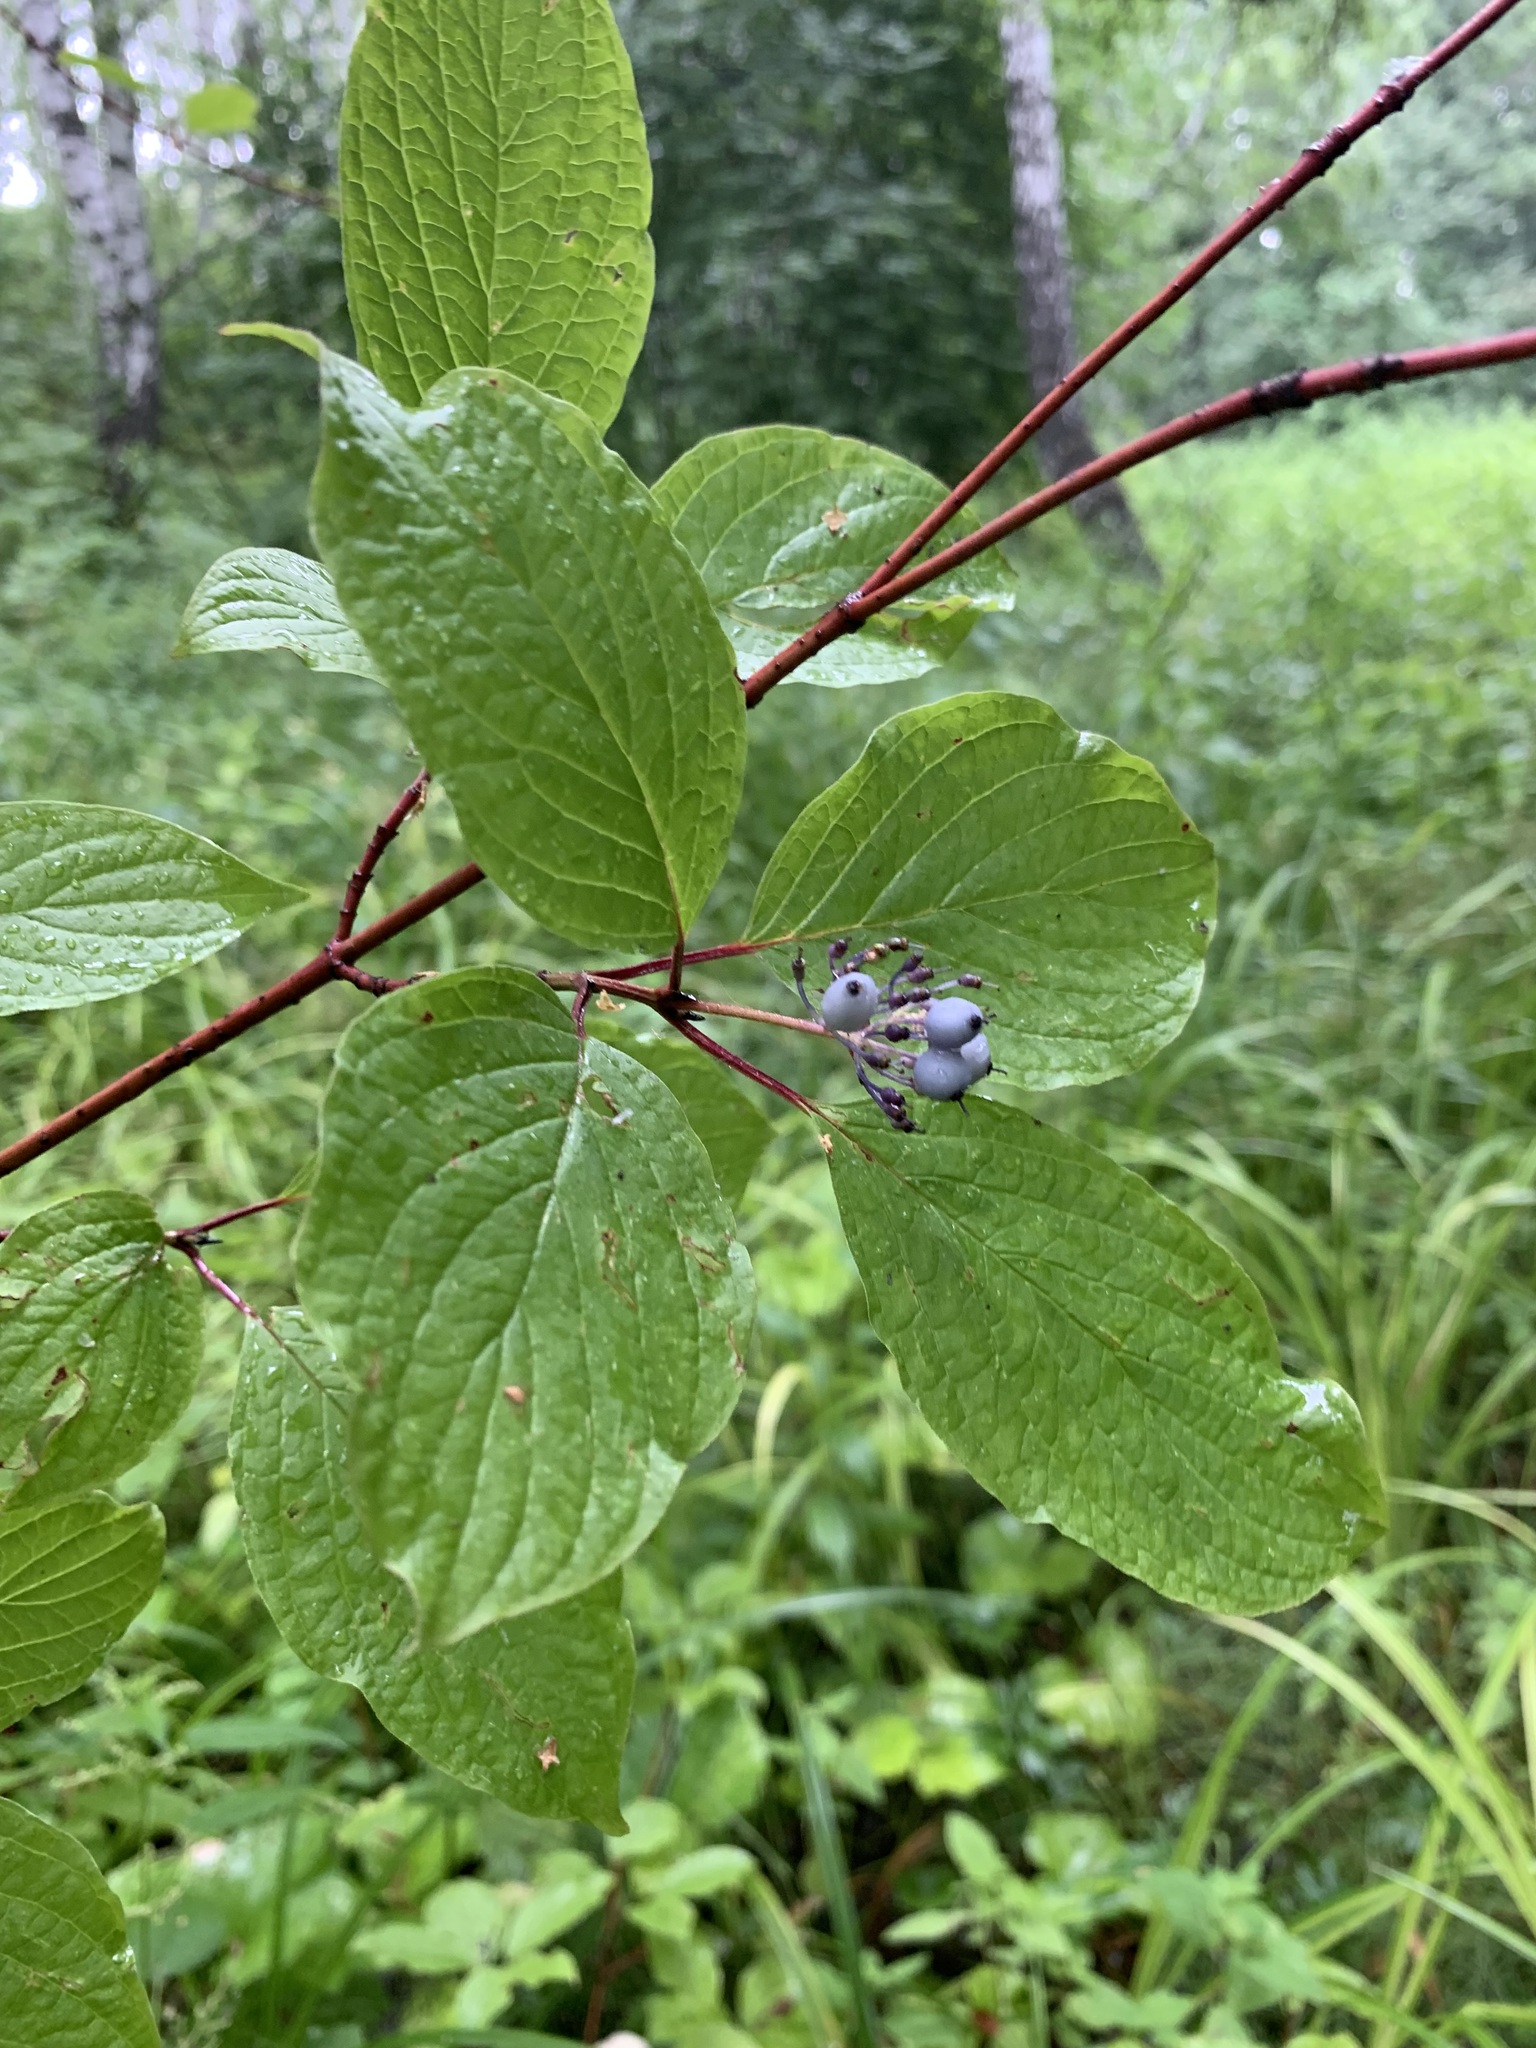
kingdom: Plantae
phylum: Tracheophyta
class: Magnoliopsida
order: Cornales
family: Cornaceae
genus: Cornus
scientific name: Cornus alba
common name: White dogwood
